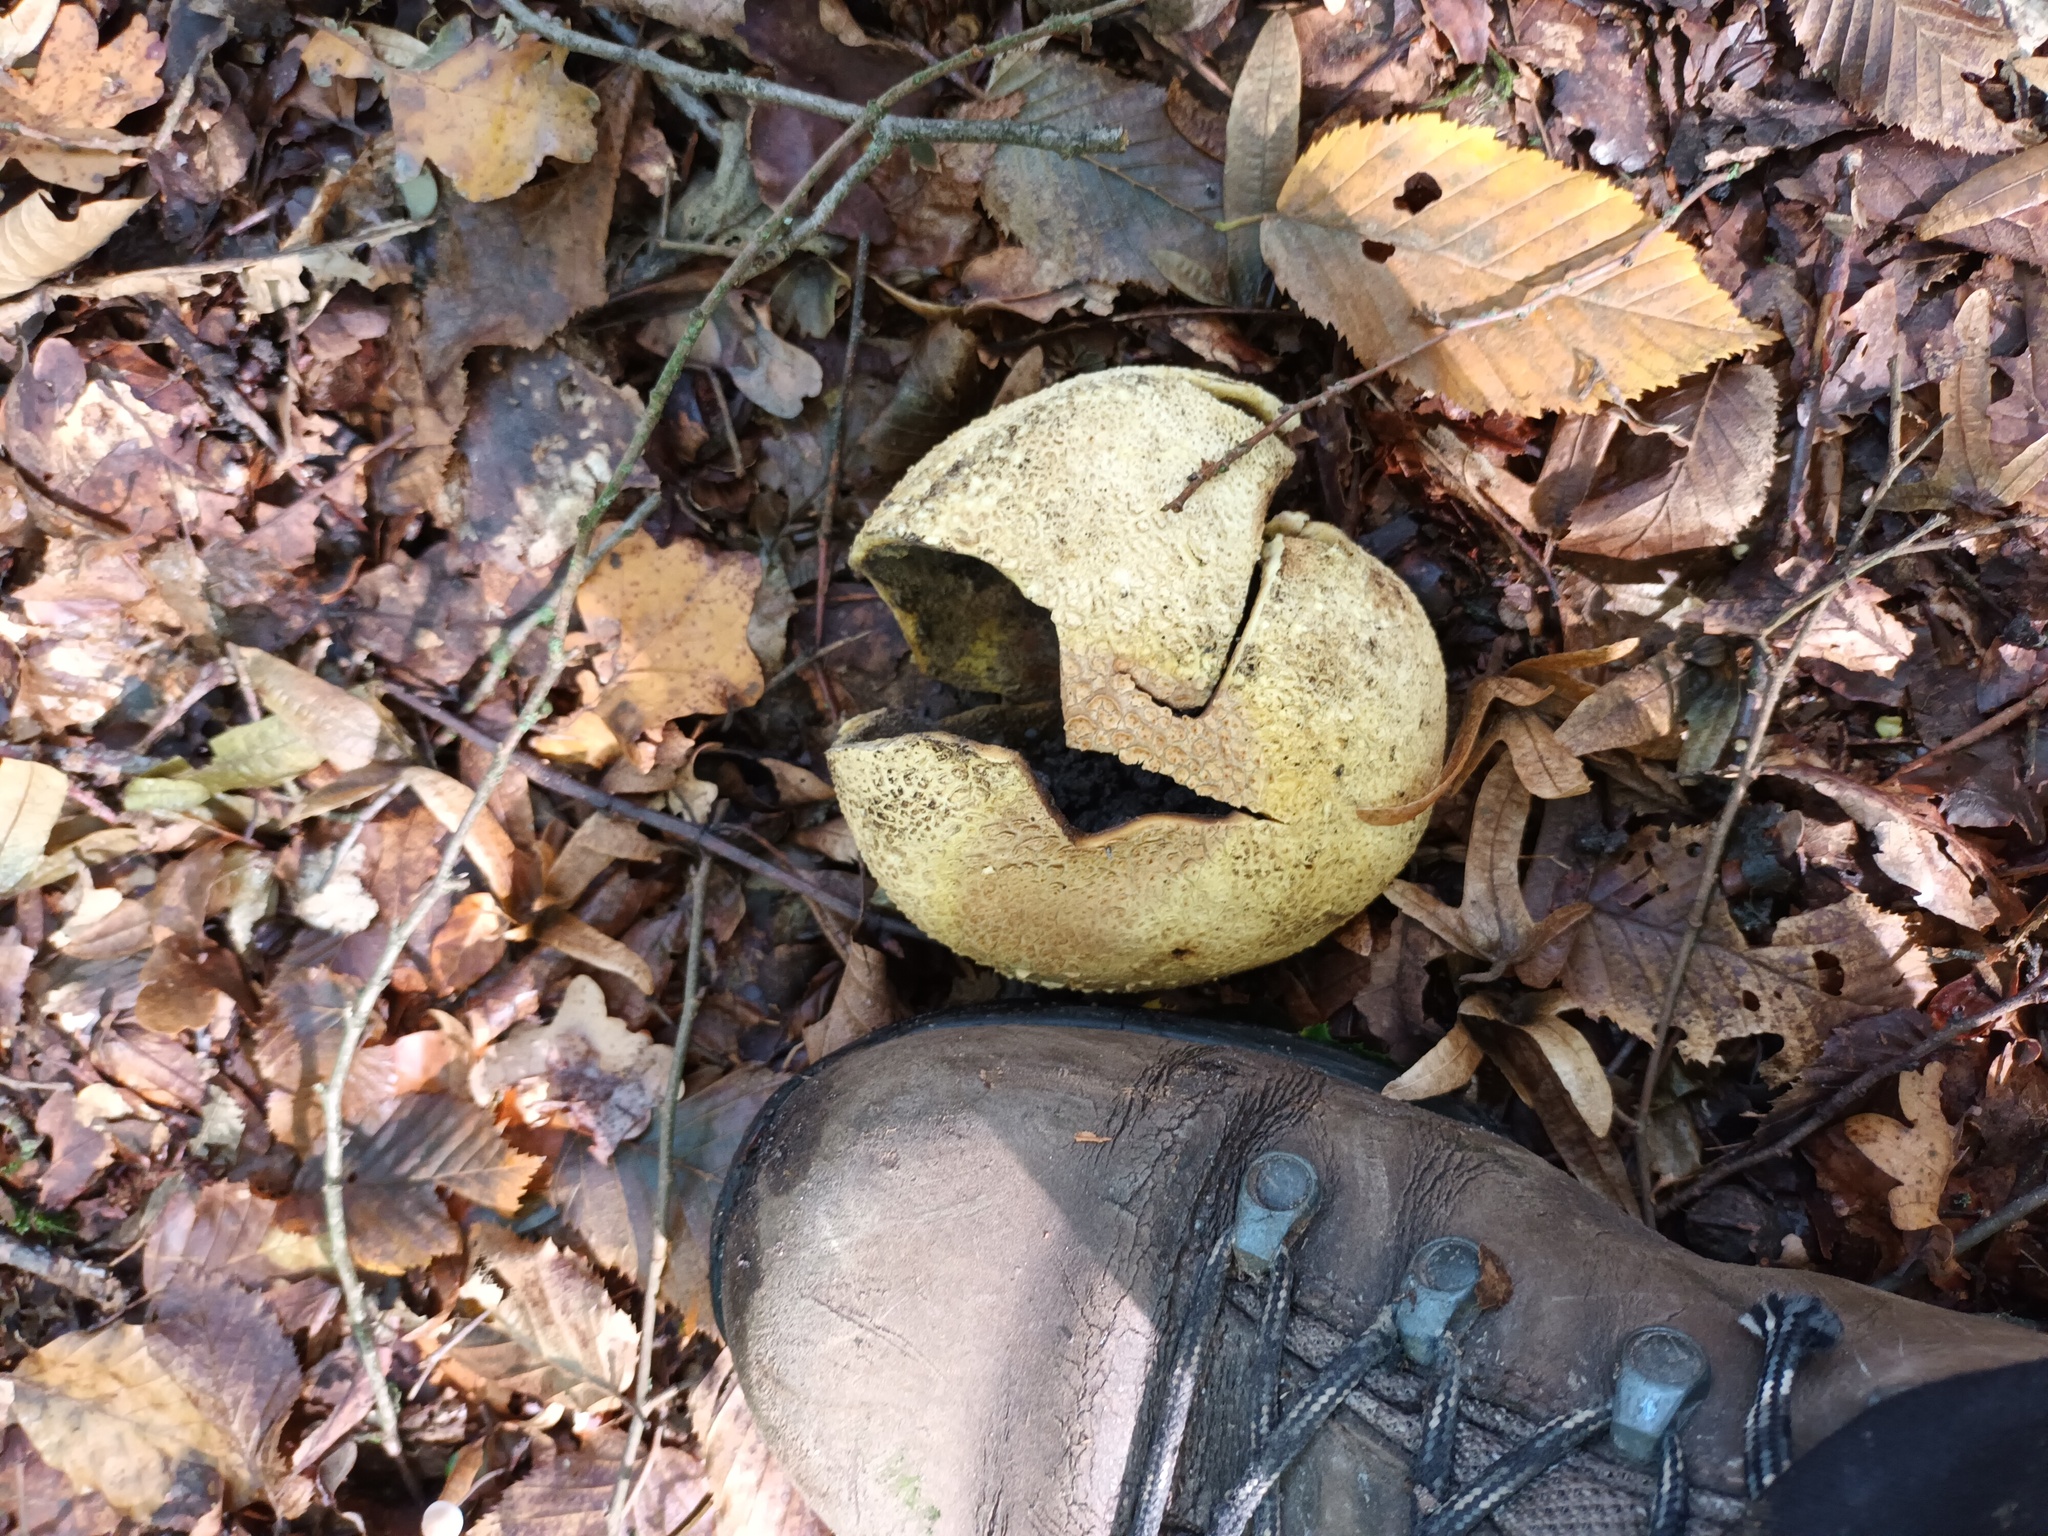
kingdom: Fungi
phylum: Basidiomycota
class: Agaricomycetes
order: Boletales
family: Sclerodermataceae
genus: Scleroderma
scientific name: Scleroderma citrinum
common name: Common earthball
